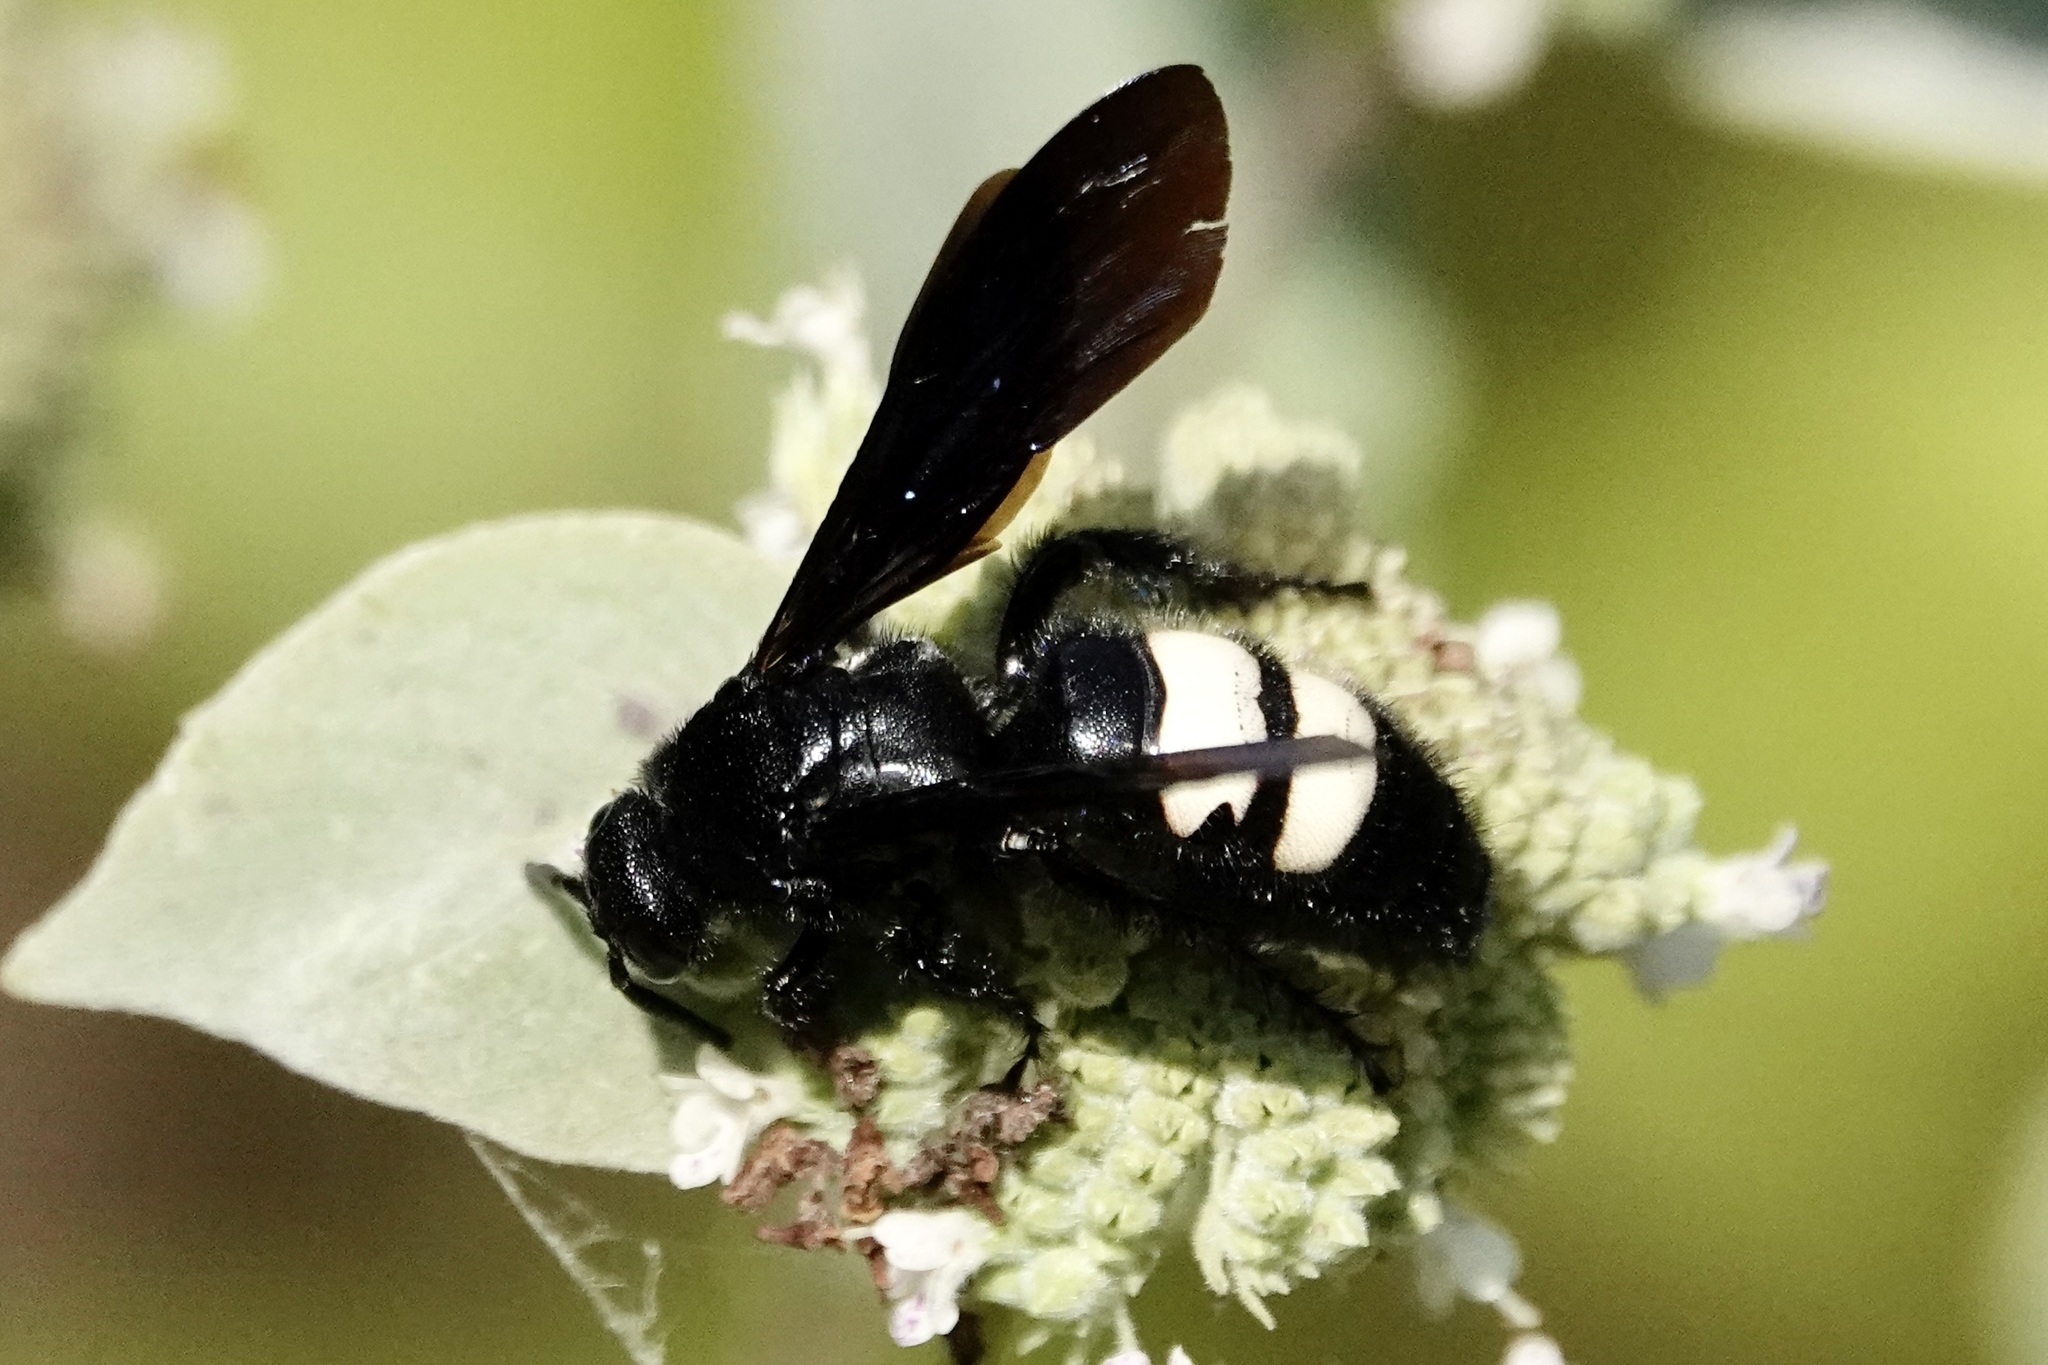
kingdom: Animalia
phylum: Arthropoda
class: Insecta
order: Hymenoptera
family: Scoliidae
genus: Scolia
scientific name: Scolia bicincta
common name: Double-banded scoliid wasp
